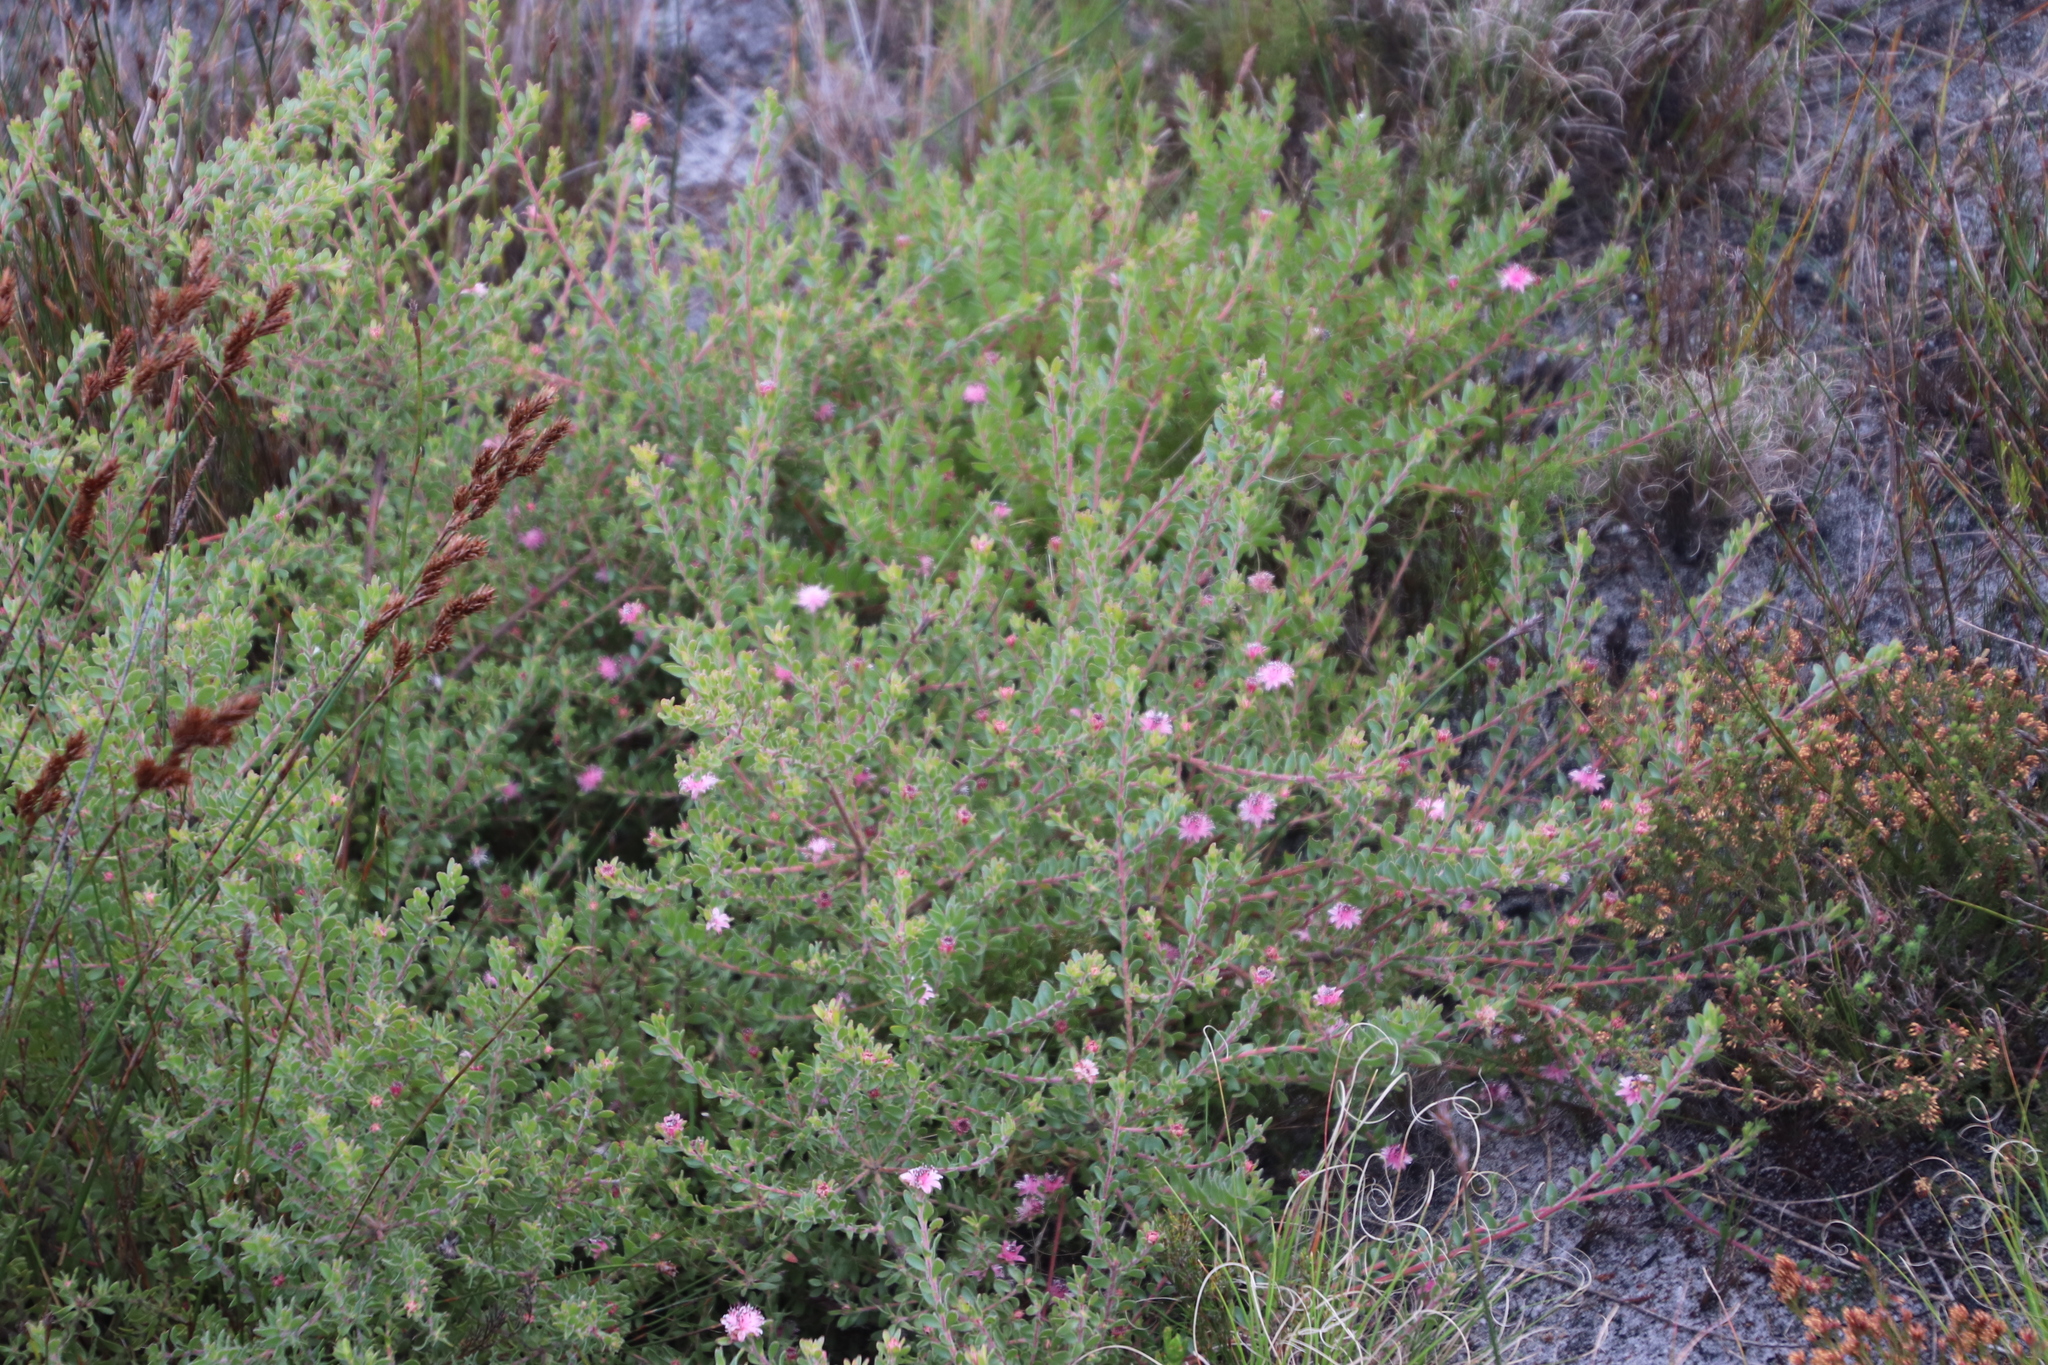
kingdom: Plantae
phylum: Tracheophyta
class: Magnoliopsida
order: Proteales
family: Proteaceae
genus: Diastella
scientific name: Diastella divaricata
